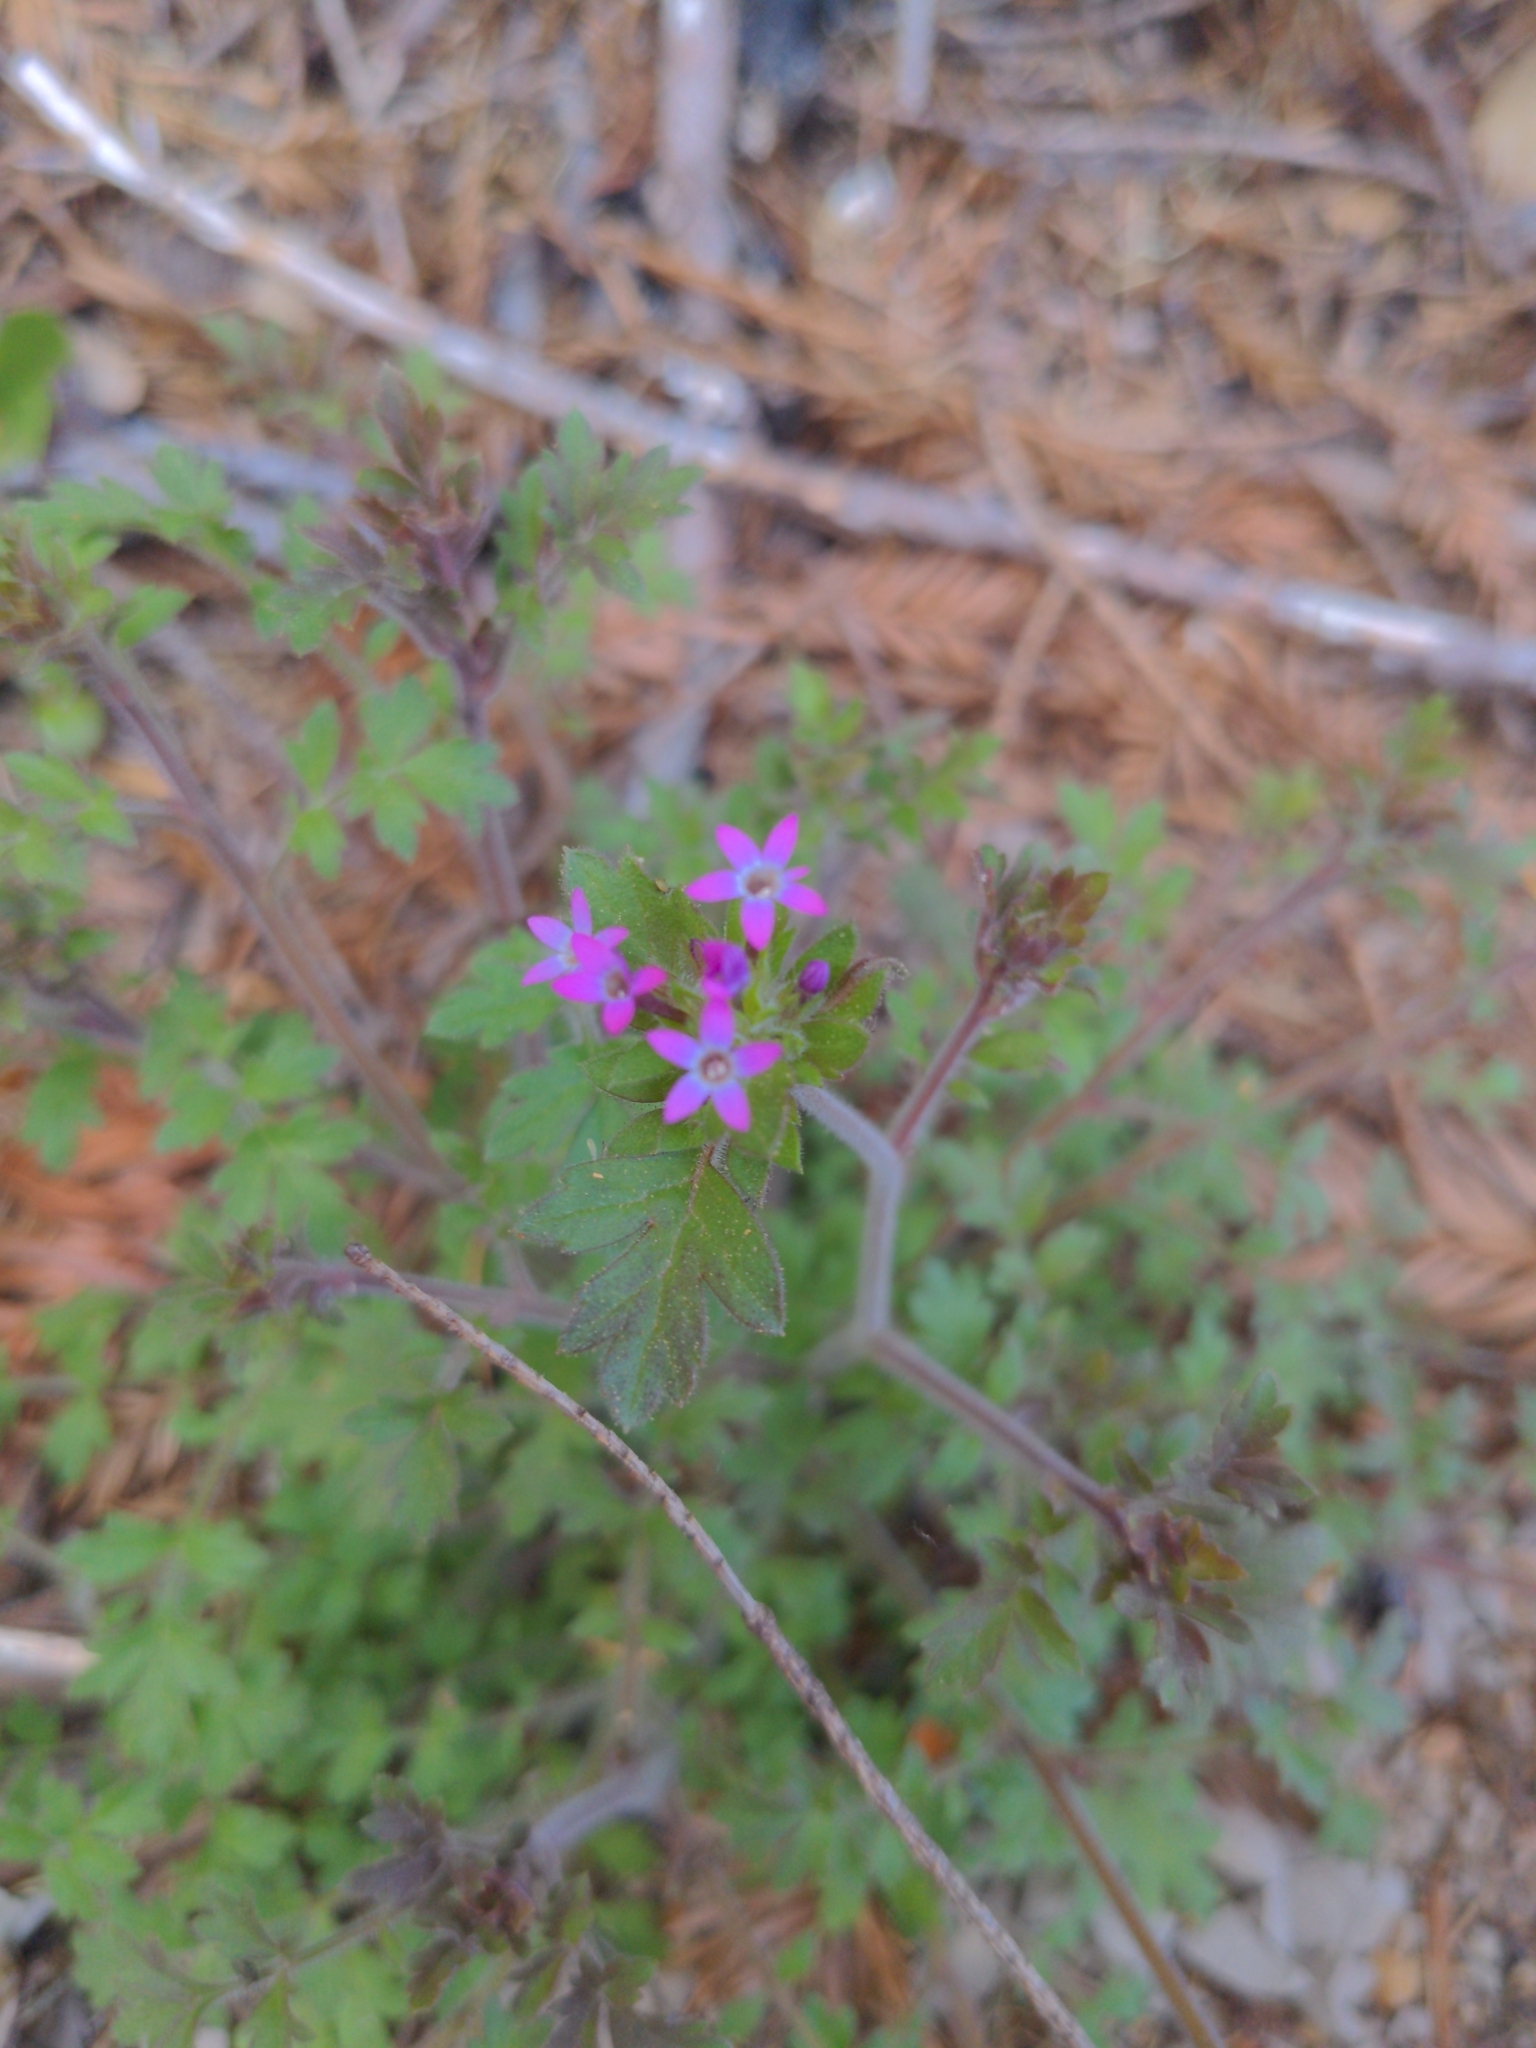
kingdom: Plantae
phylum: Tracheophyta
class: Magnoliopsida
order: Ericales
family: Polemoniaceae
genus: Collomia
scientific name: Collomia heterophylla
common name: Variable-leaved collomia
